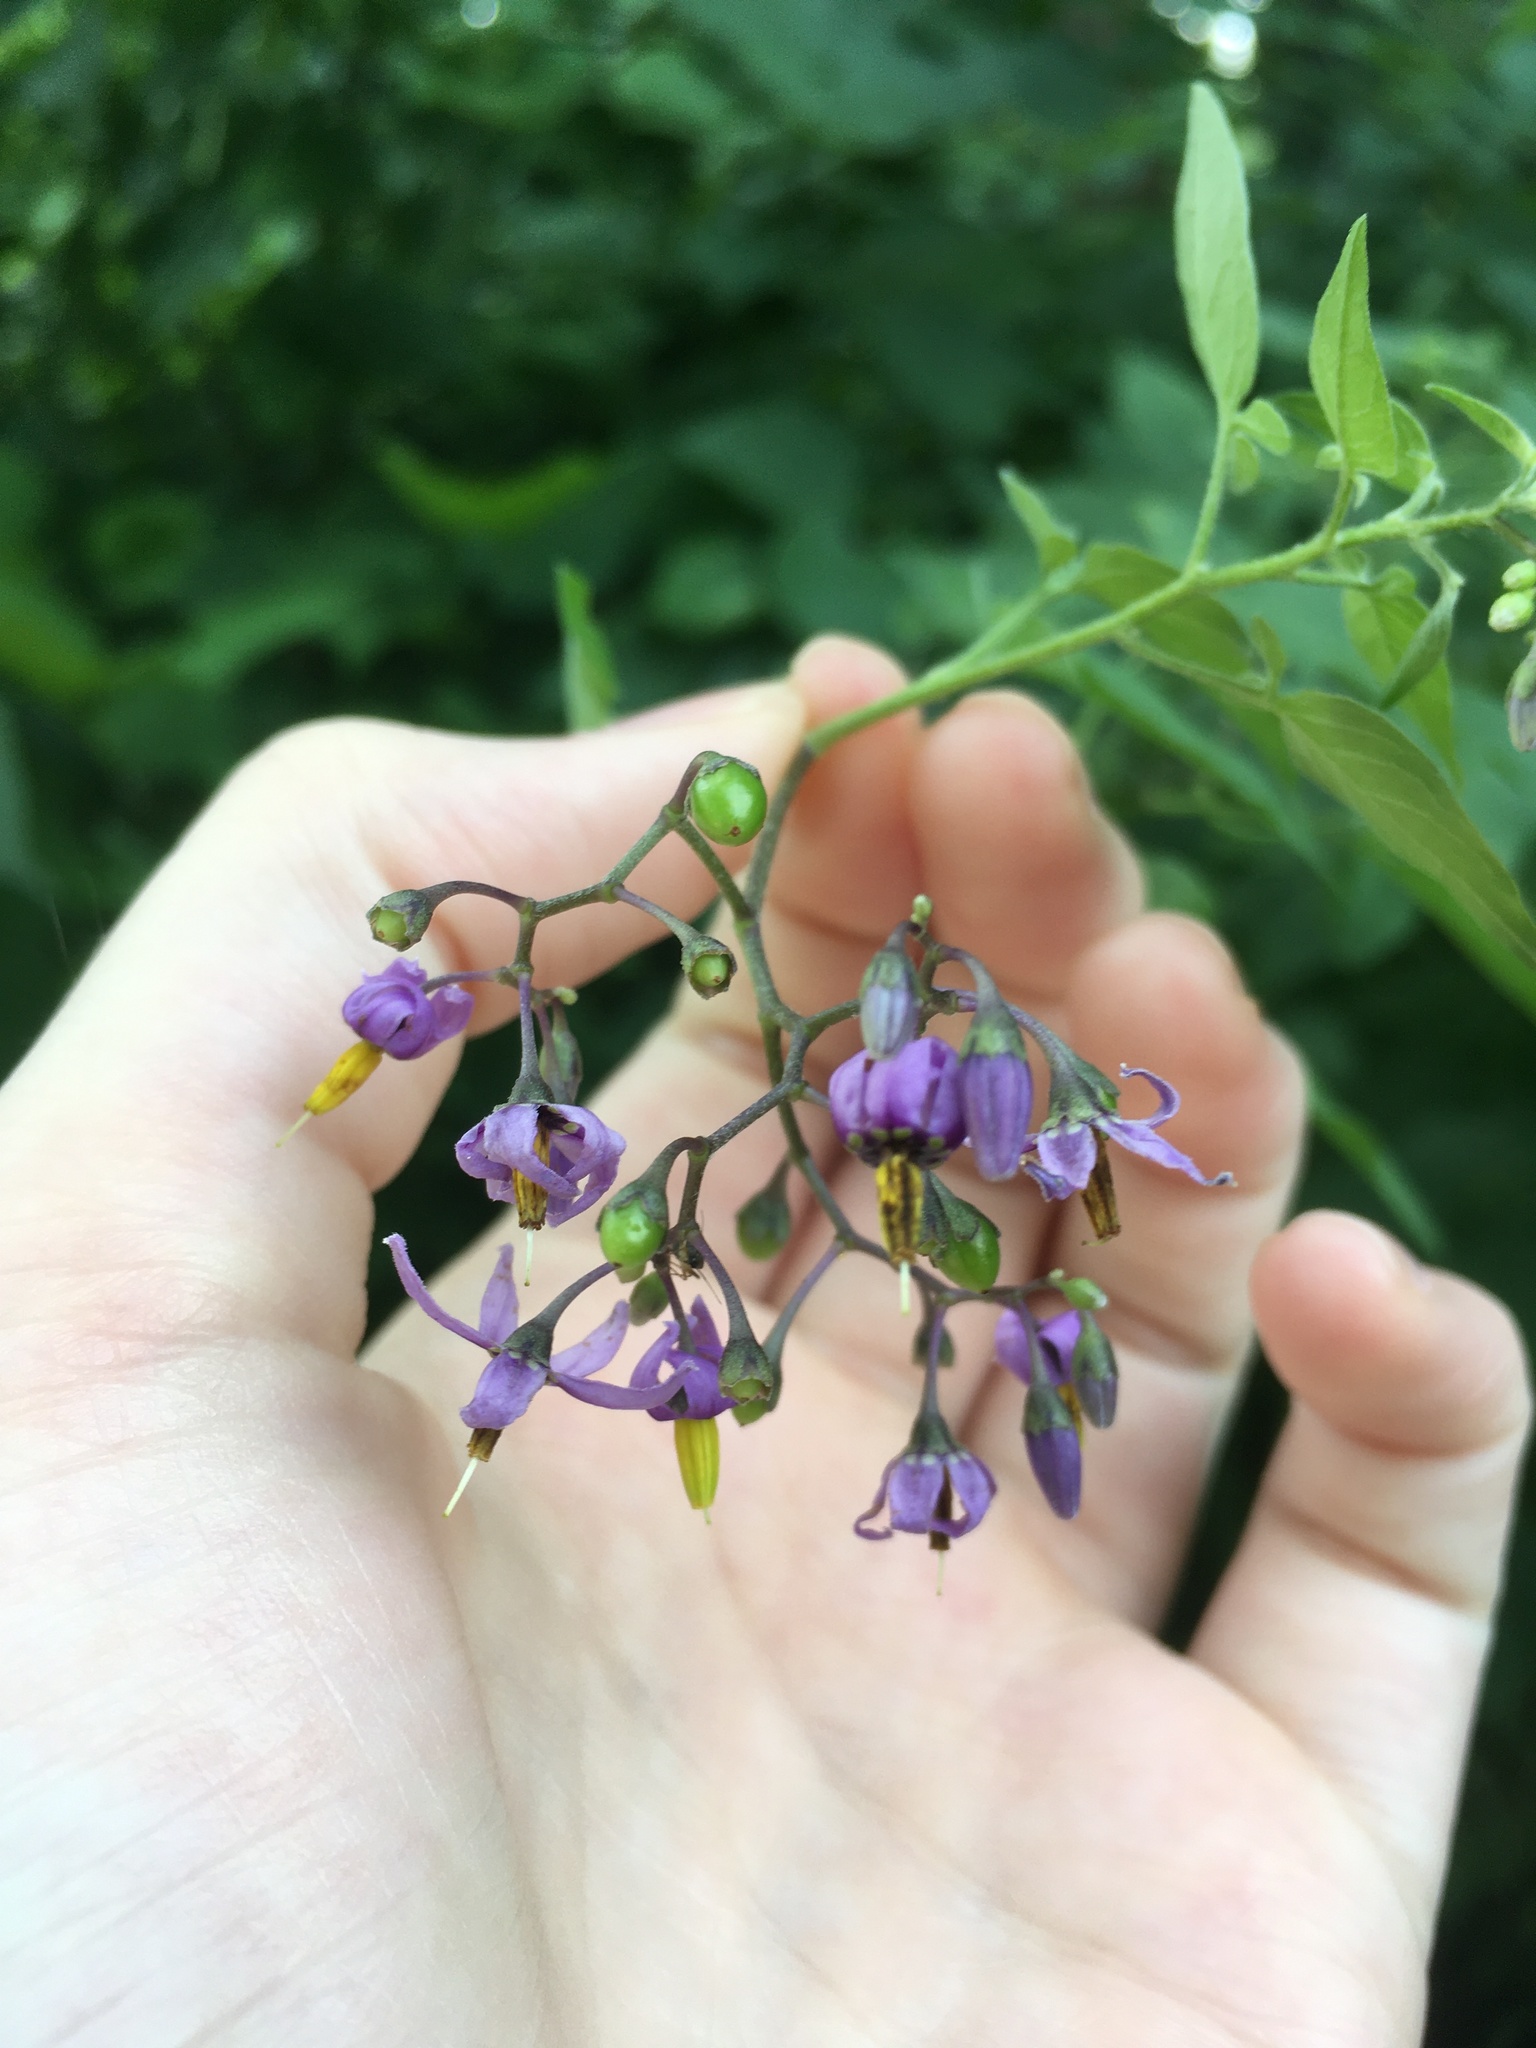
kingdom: Plantae
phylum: Tracheophyta
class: Magnoliopsida
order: Solanales
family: Solanaceae
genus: Solanum
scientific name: Solanum dulcamara
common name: Climbing nightshade
